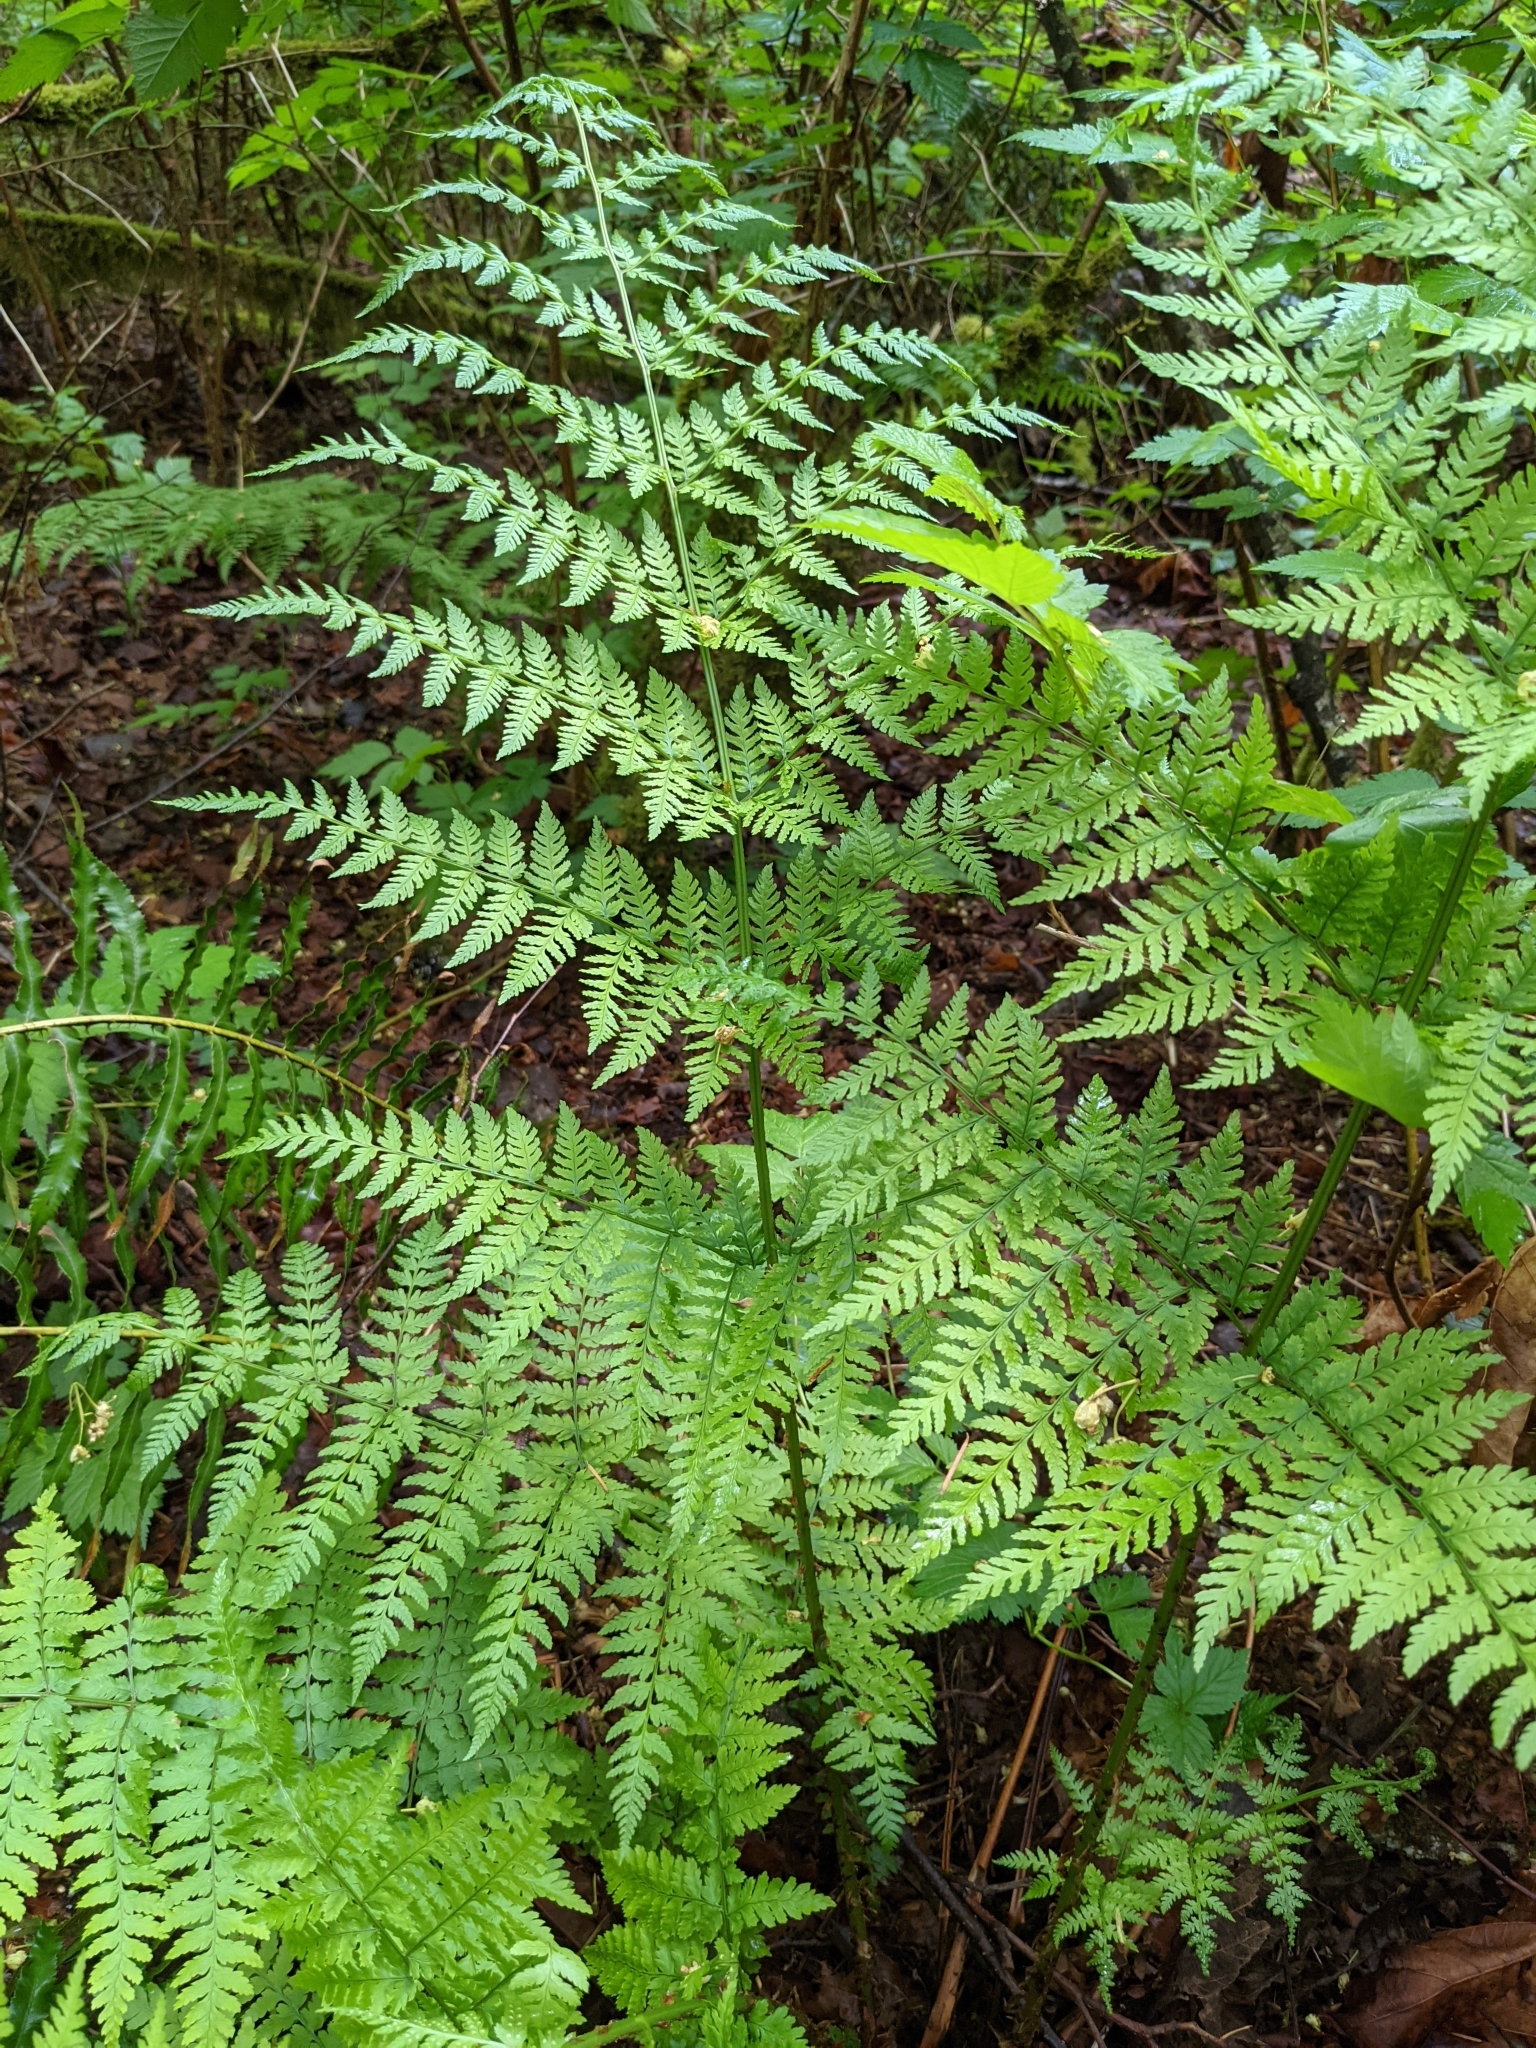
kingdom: Plantae
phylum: Tracheophyta
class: Polypodiopsida
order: Polypodiales
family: Dryopteridaceae
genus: Dryopteris
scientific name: Dryopteris expansa
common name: Northern buckler fern
